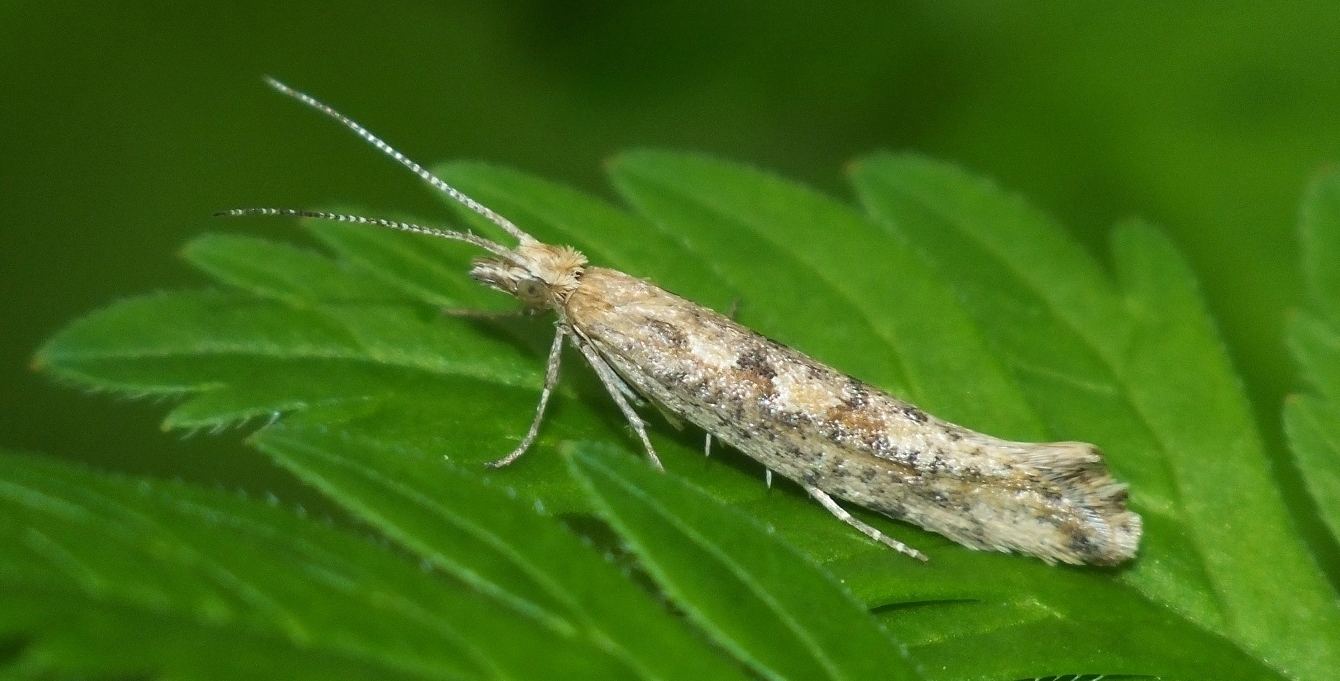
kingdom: Animalia
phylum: Arthropoda
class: Insecta
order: Lepidoptera
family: Plutellidae
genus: Plutella
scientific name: Plutella xylostella
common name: Diamond-back moth
